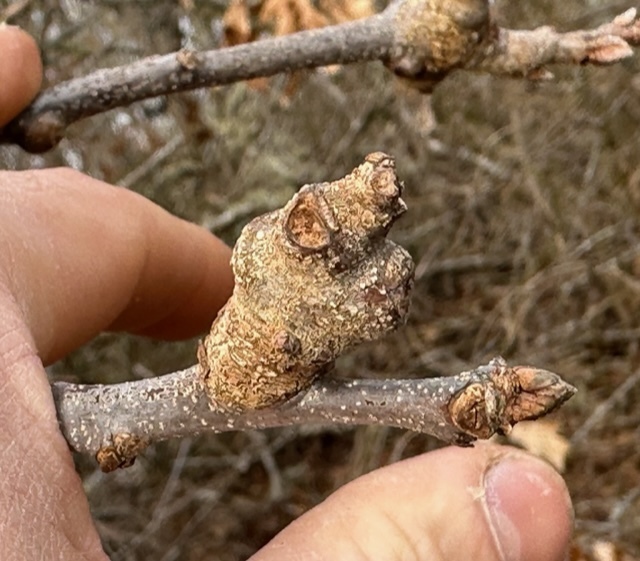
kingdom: Animalia
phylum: Arthropoda
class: Insecta
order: Hymenoptera
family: Cynipidae
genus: Callirhytis
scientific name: Callirhytis
